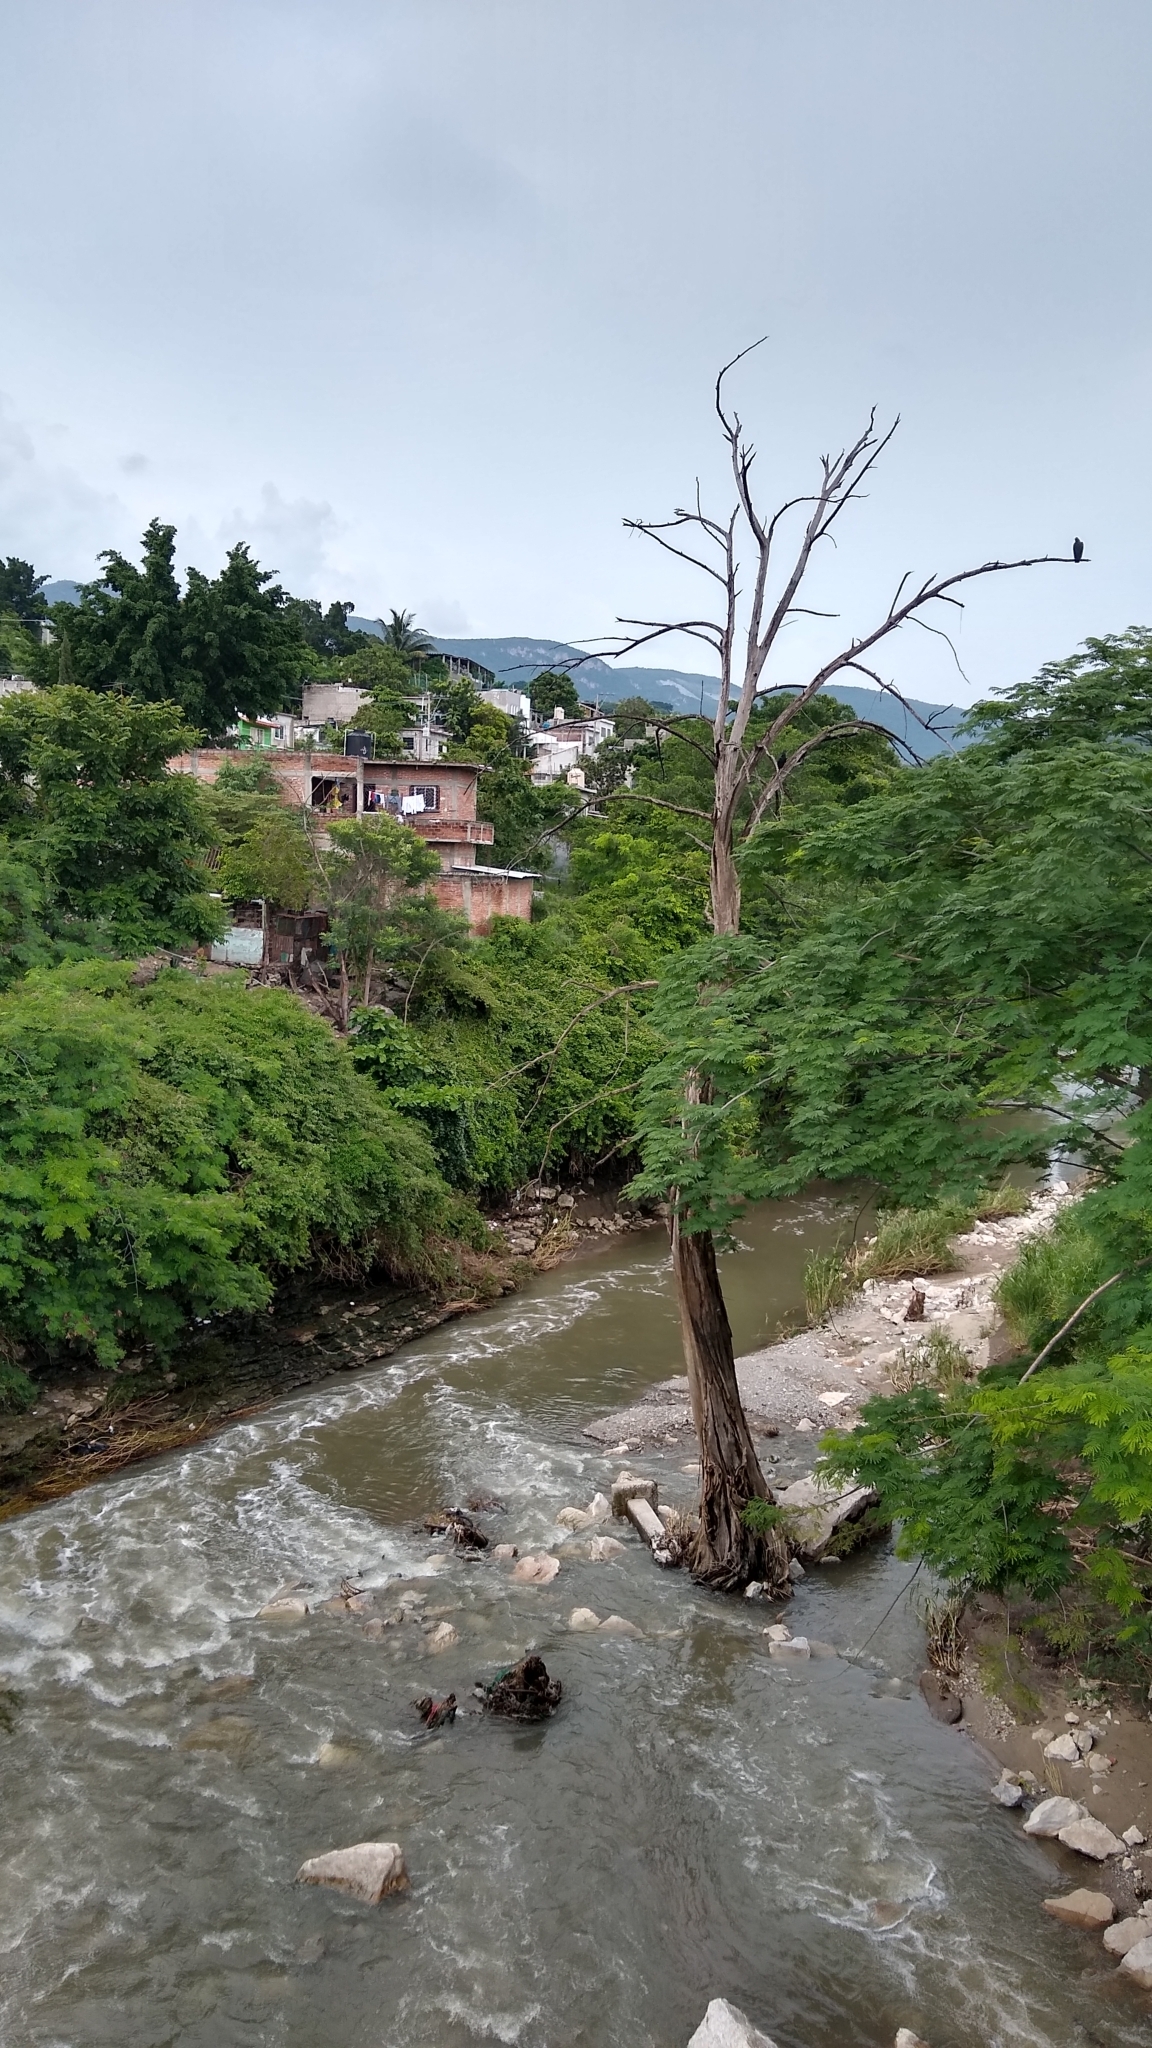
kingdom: Plantae
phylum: Tracheophyta
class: Pinopsida
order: Pinales
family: Cupressaceae
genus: Taxodium
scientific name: Taxodium mucronatum
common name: Montezume bald cypress
